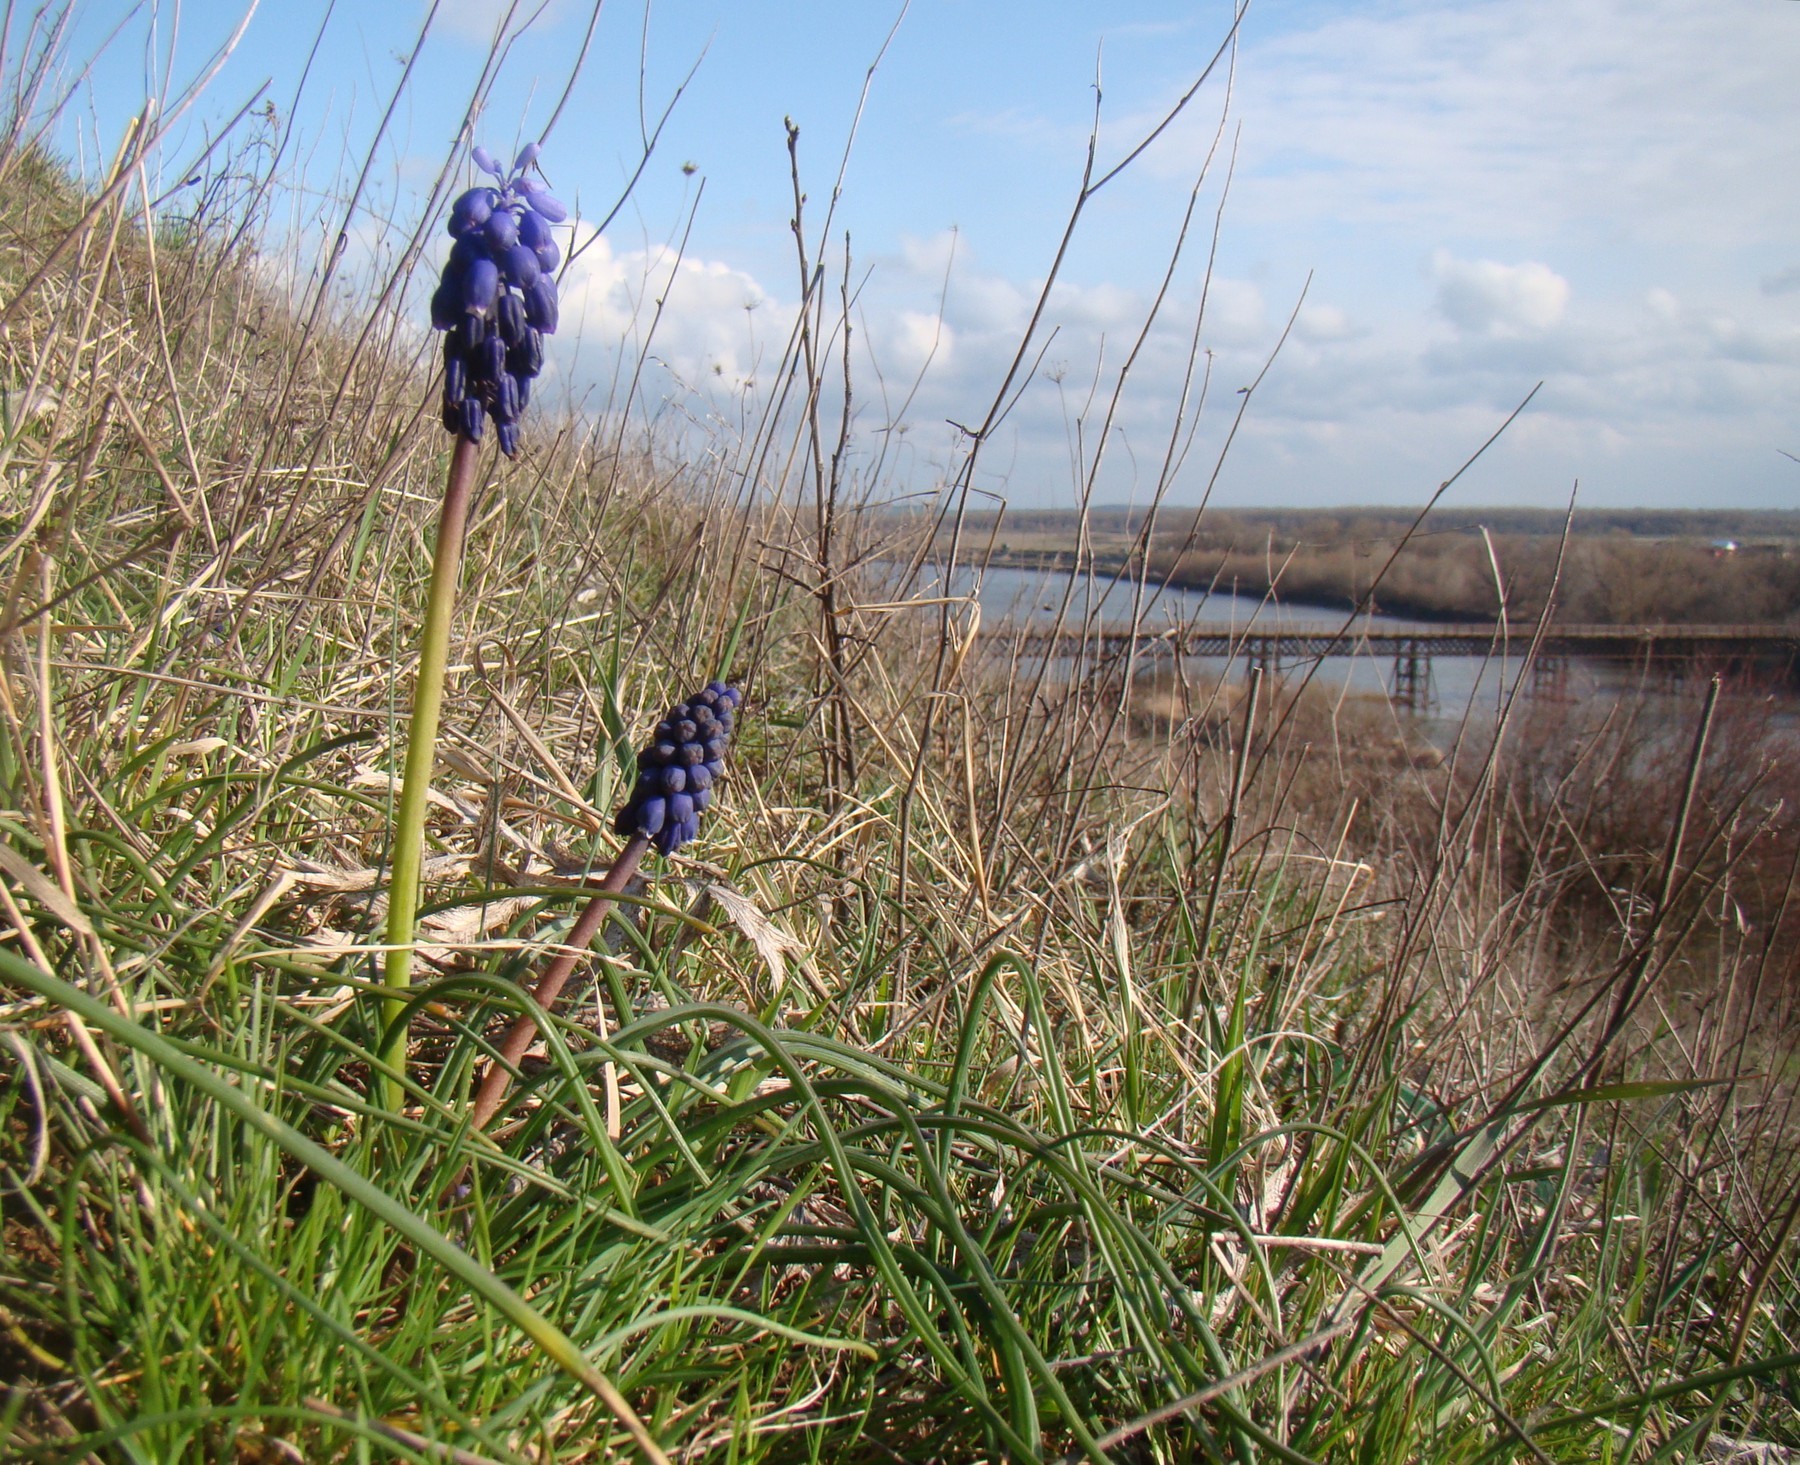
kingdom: Plantae
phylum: Tracheophyta
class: Liliopsida
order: Asparagales
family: Asparagaceae
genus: Muscari
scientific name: Muscari neglectum
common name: Grape-hyacinth
